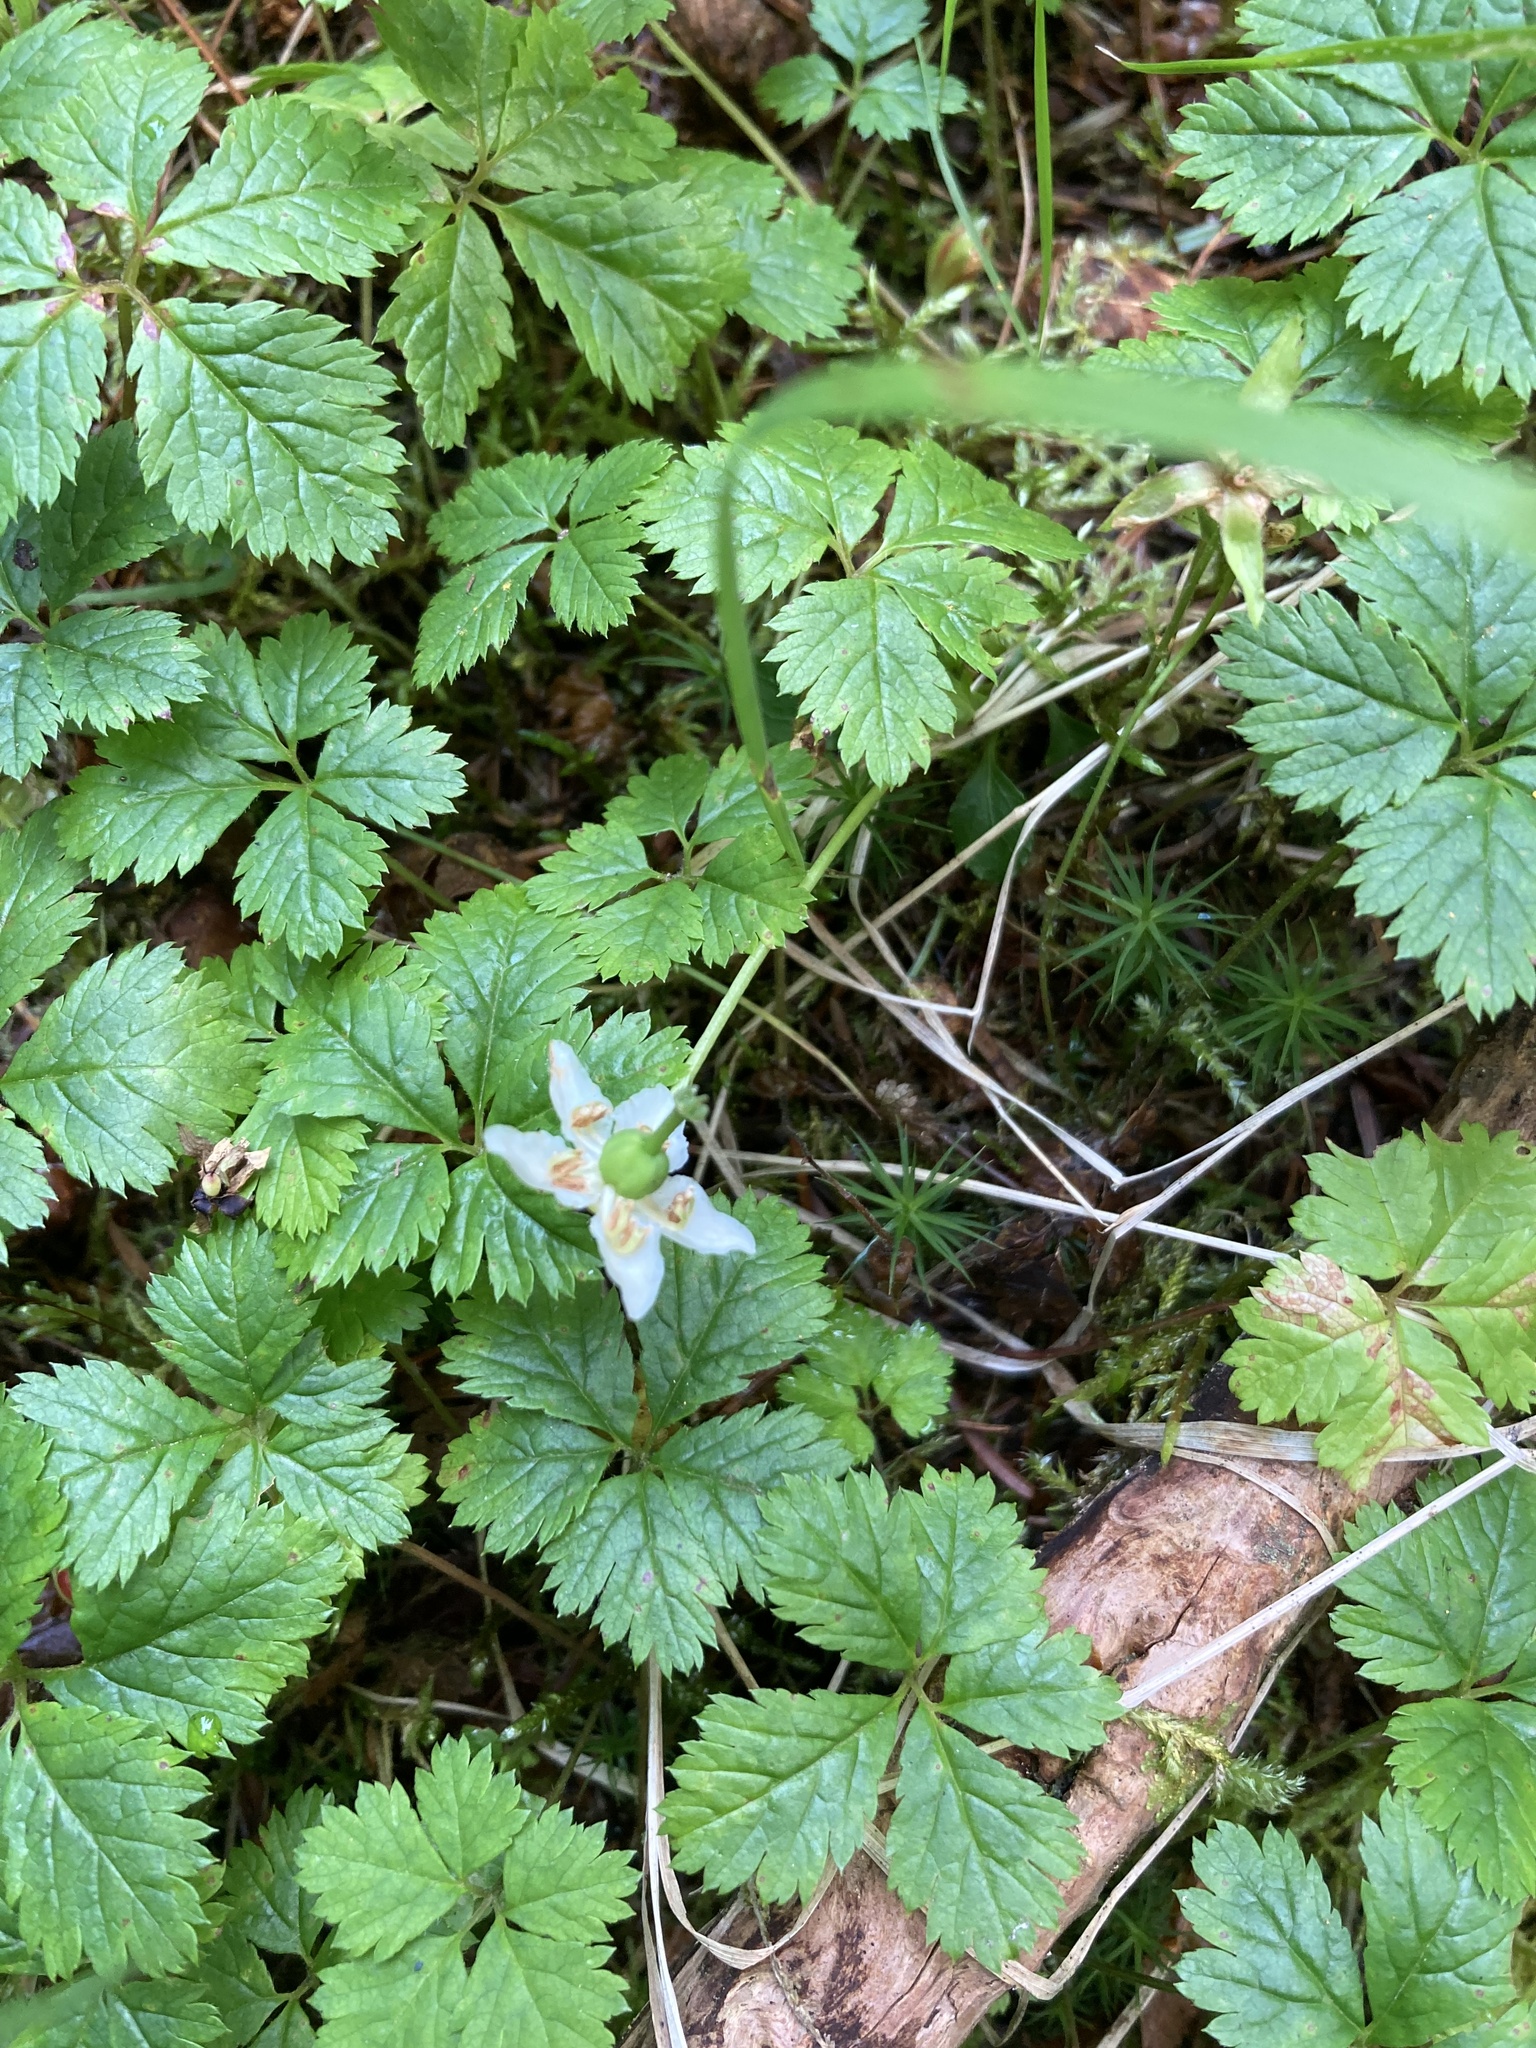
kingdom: Plantae
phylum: Tracheophyta
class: Magnoliopsida
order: Ericales
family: Ericaceae
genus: Moneses
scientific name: Moneses uniflora
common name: One-flowered wintergreen
